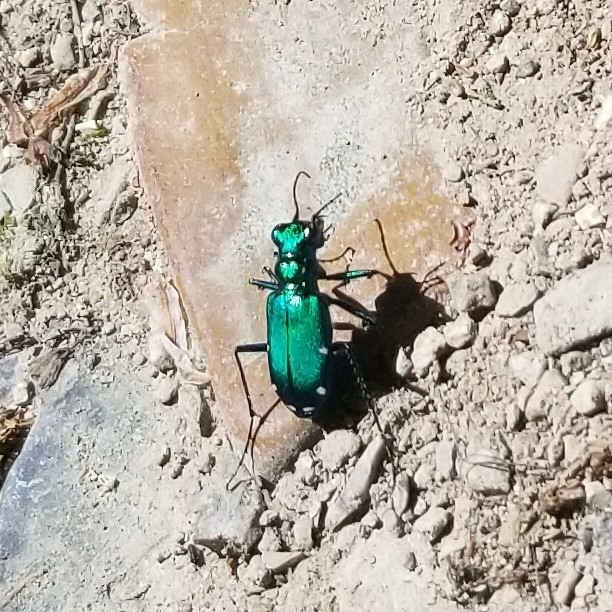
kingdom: Animalia
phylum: Arthropoda
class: Insecta
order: Coleoptera
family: Carabidae
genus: Cicindela
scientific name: Cicindela sexguttata
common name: Six-spotted tiger beetle
